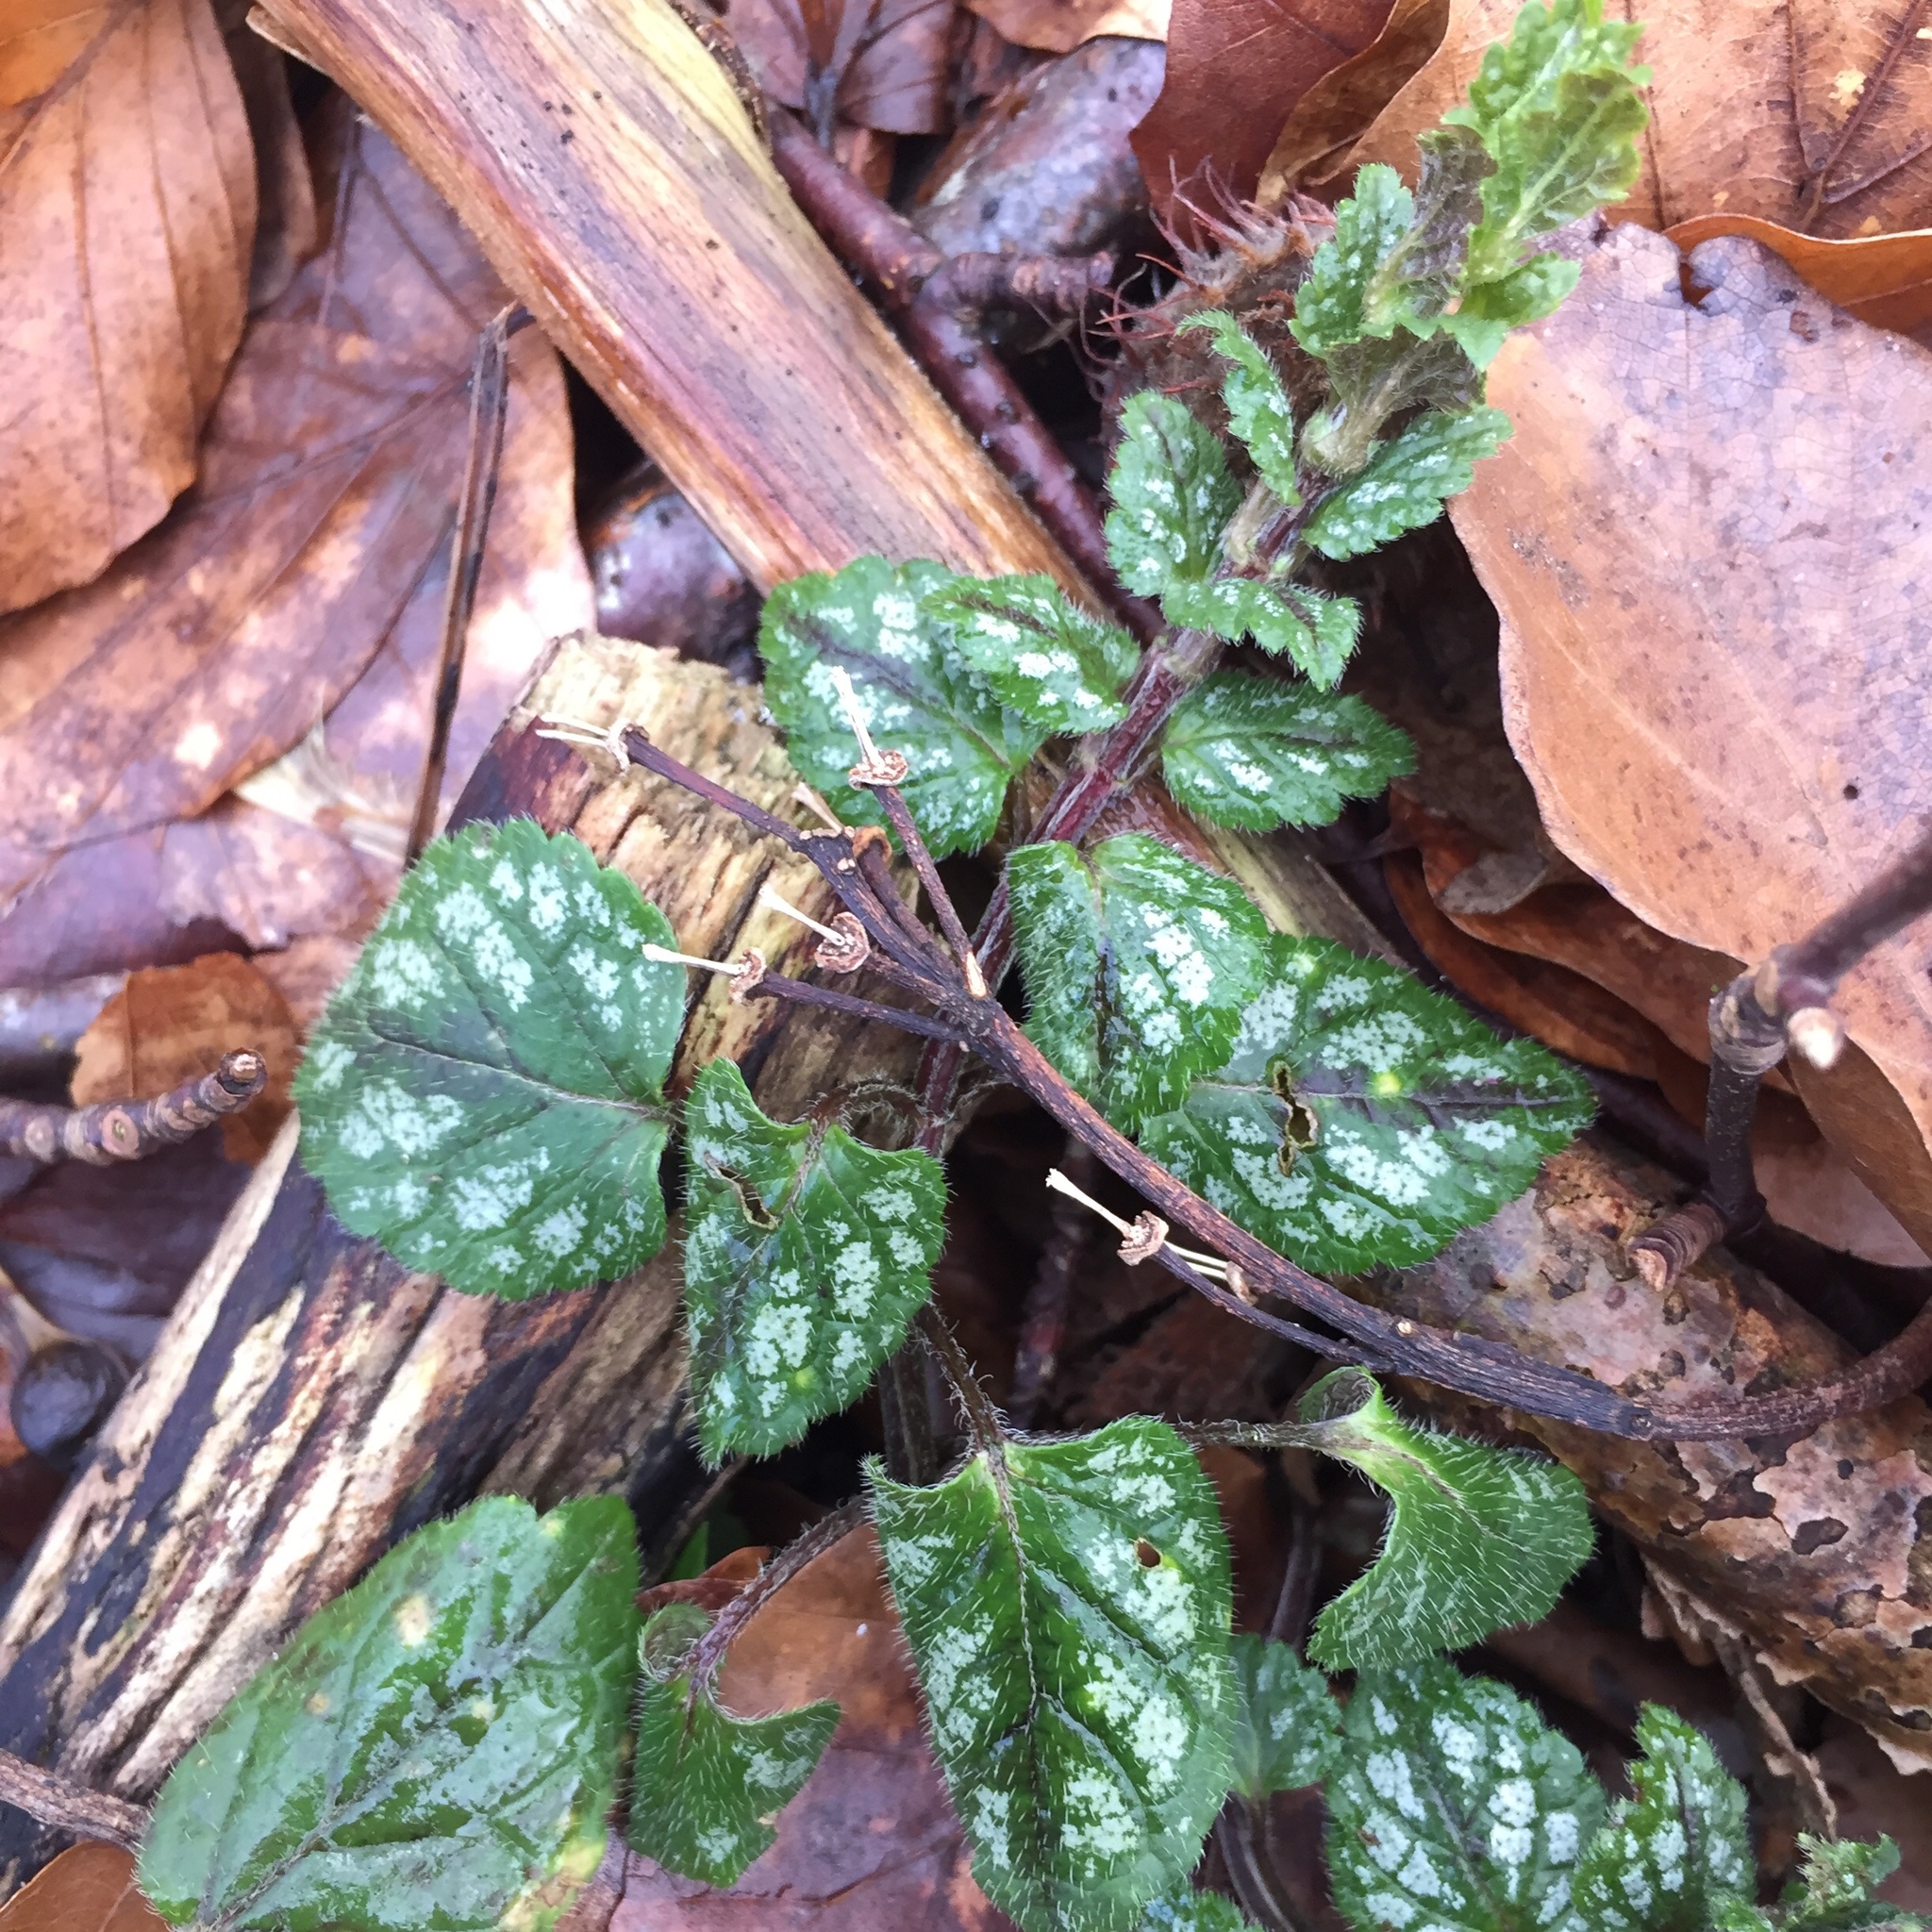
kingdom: Plantae
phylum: Tracheophyta
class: Magnoliopsida
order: Lamiales
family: Lamiaceae
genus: Lamium
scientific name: Lamium galeobdolon
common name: Yellow archangel
